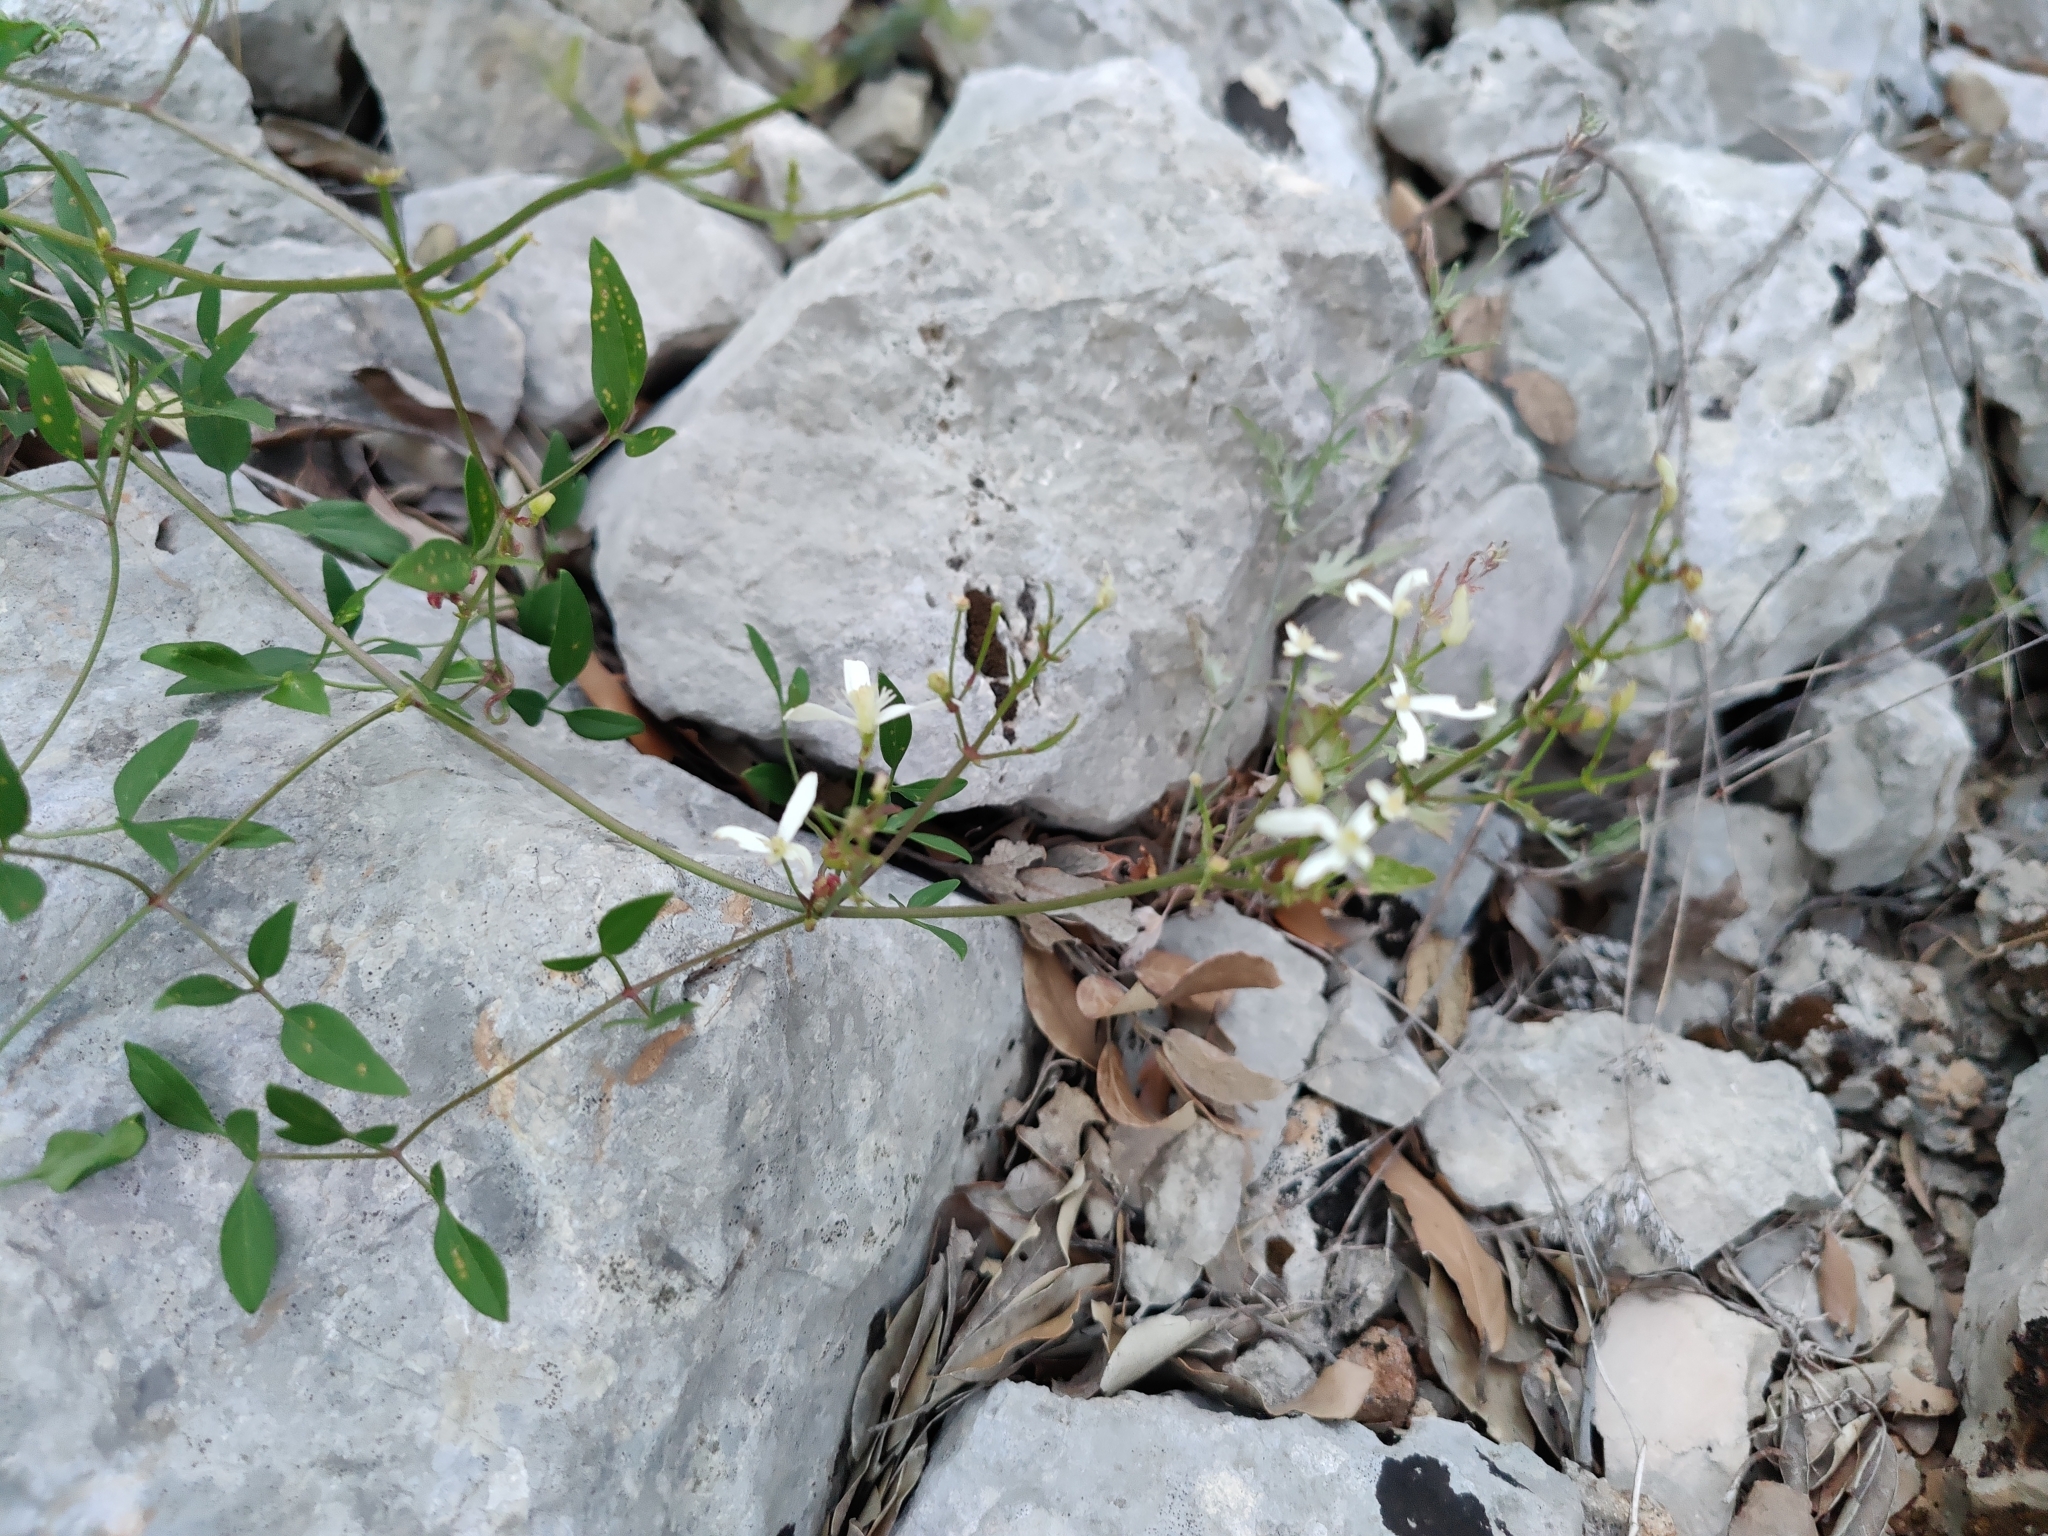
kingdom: Plantae
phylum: Tracheophyta
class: Magnoliopsida
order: Ranunculales
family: Ranunculaceae
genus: Clematis
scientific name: Clematis flammula
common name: Virgin's-bower
